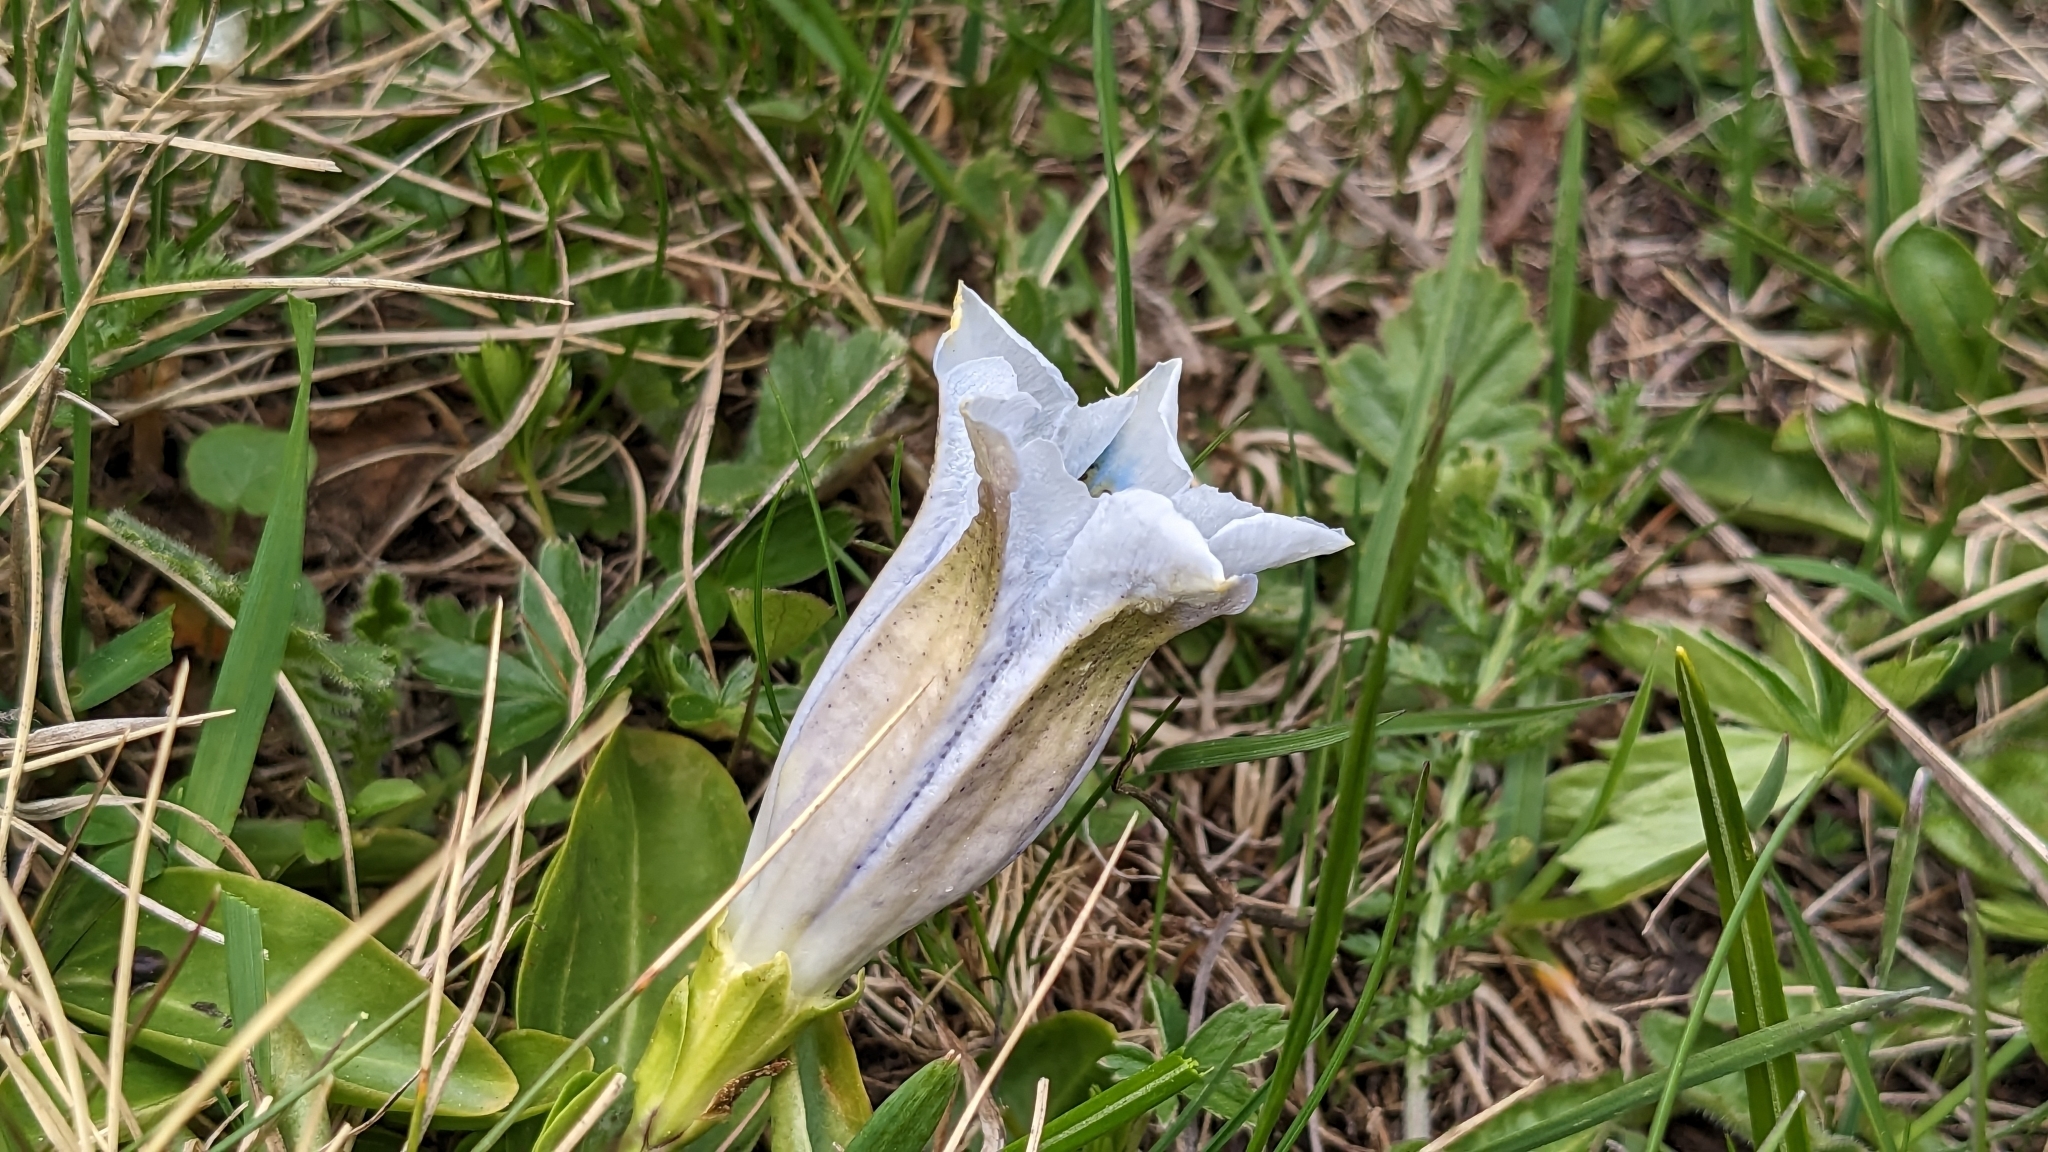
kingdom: Plantae
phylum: Tracheophyta
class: Magnoliopsida
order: Gentianales
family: Gentianaceae
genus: Gentiana
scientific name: Gentiana acaulis
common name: Trumpet gentian
